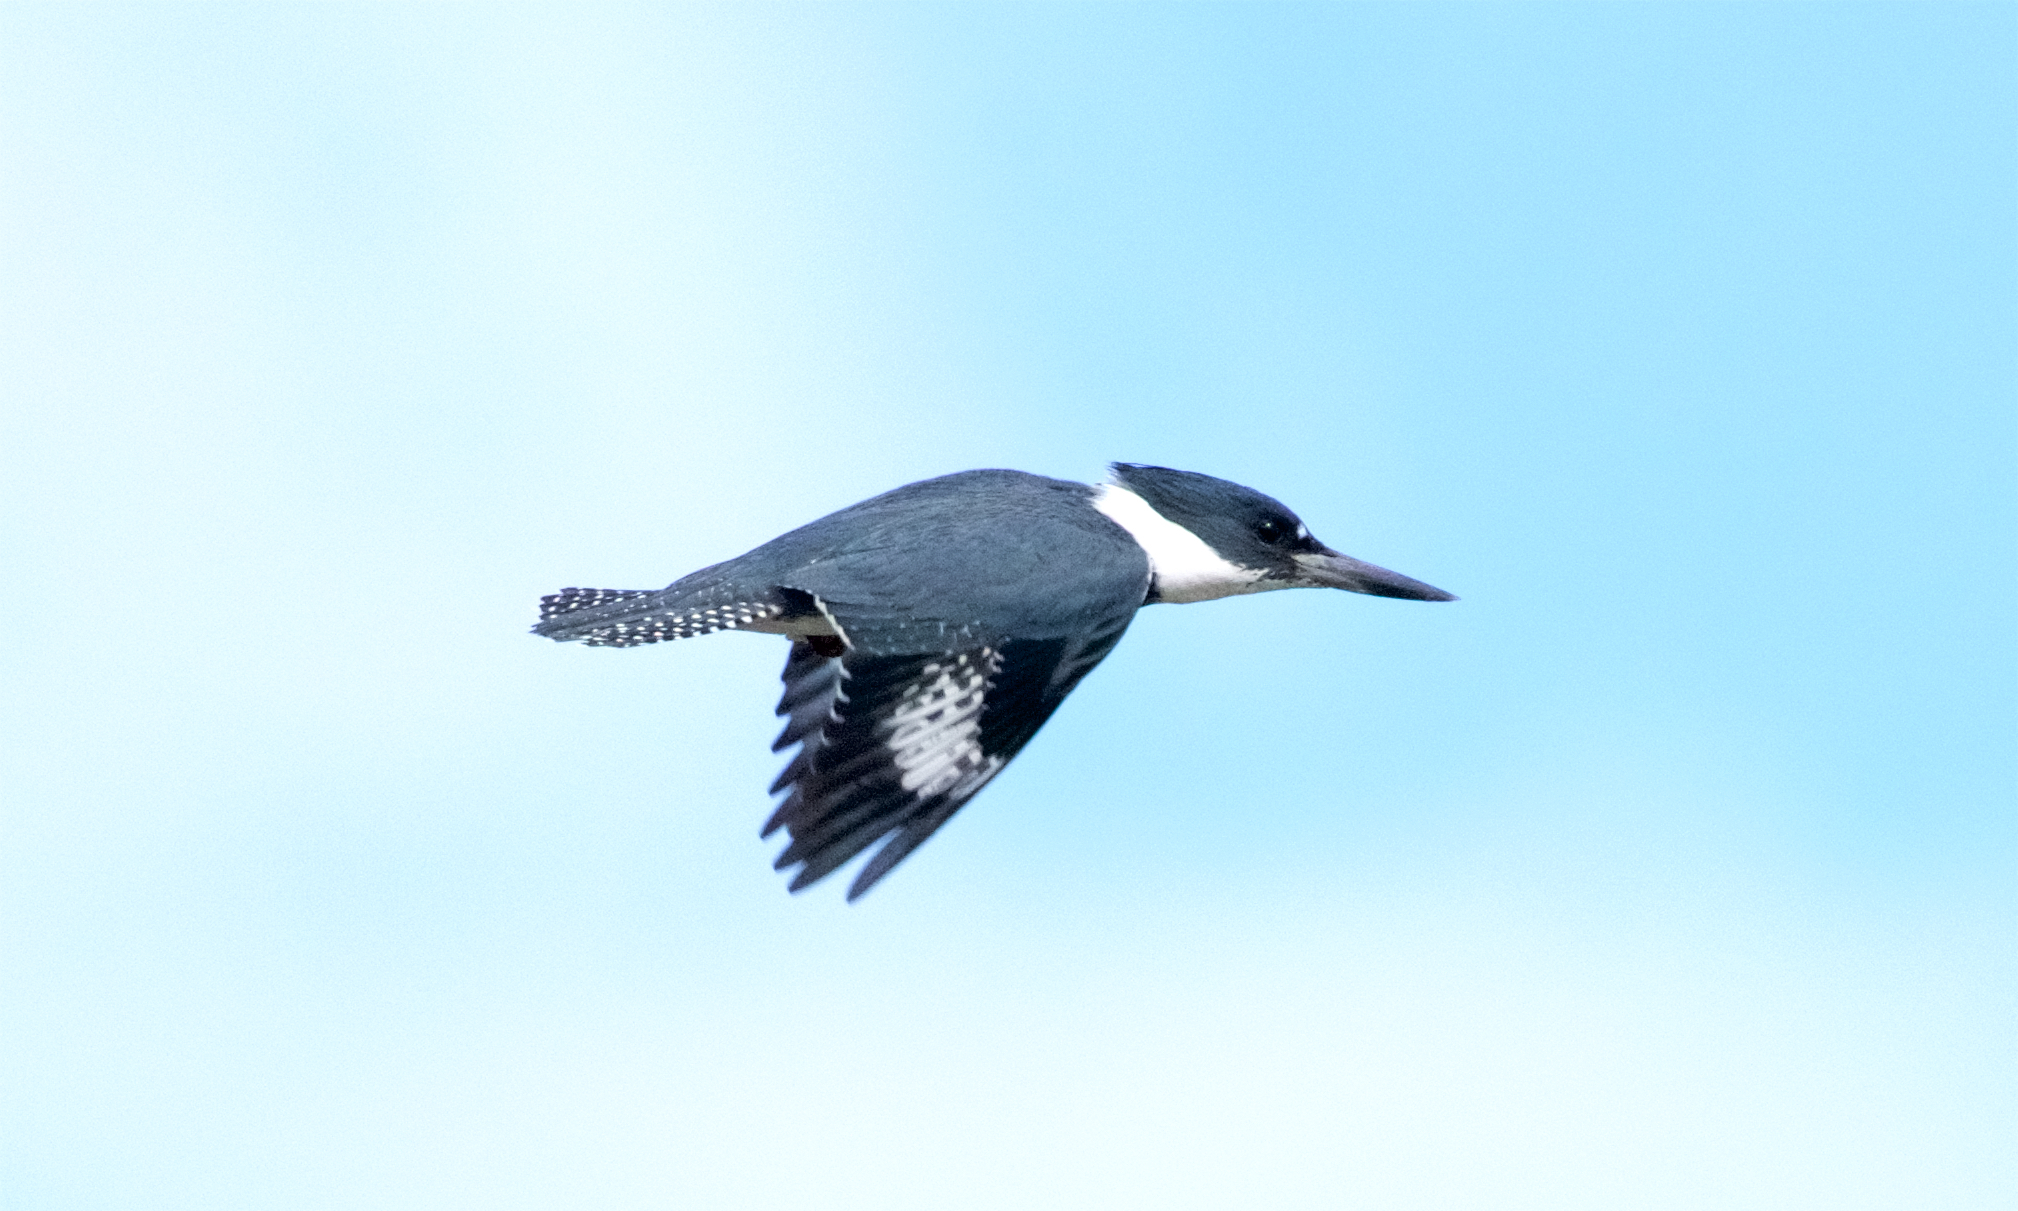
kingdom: Animalia
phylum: Chordata
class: Aves
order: Coraciiformes
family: Alcedinidae
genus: Megaceryle
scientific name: Megaceryle alcyon
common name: Belted kingfisher
